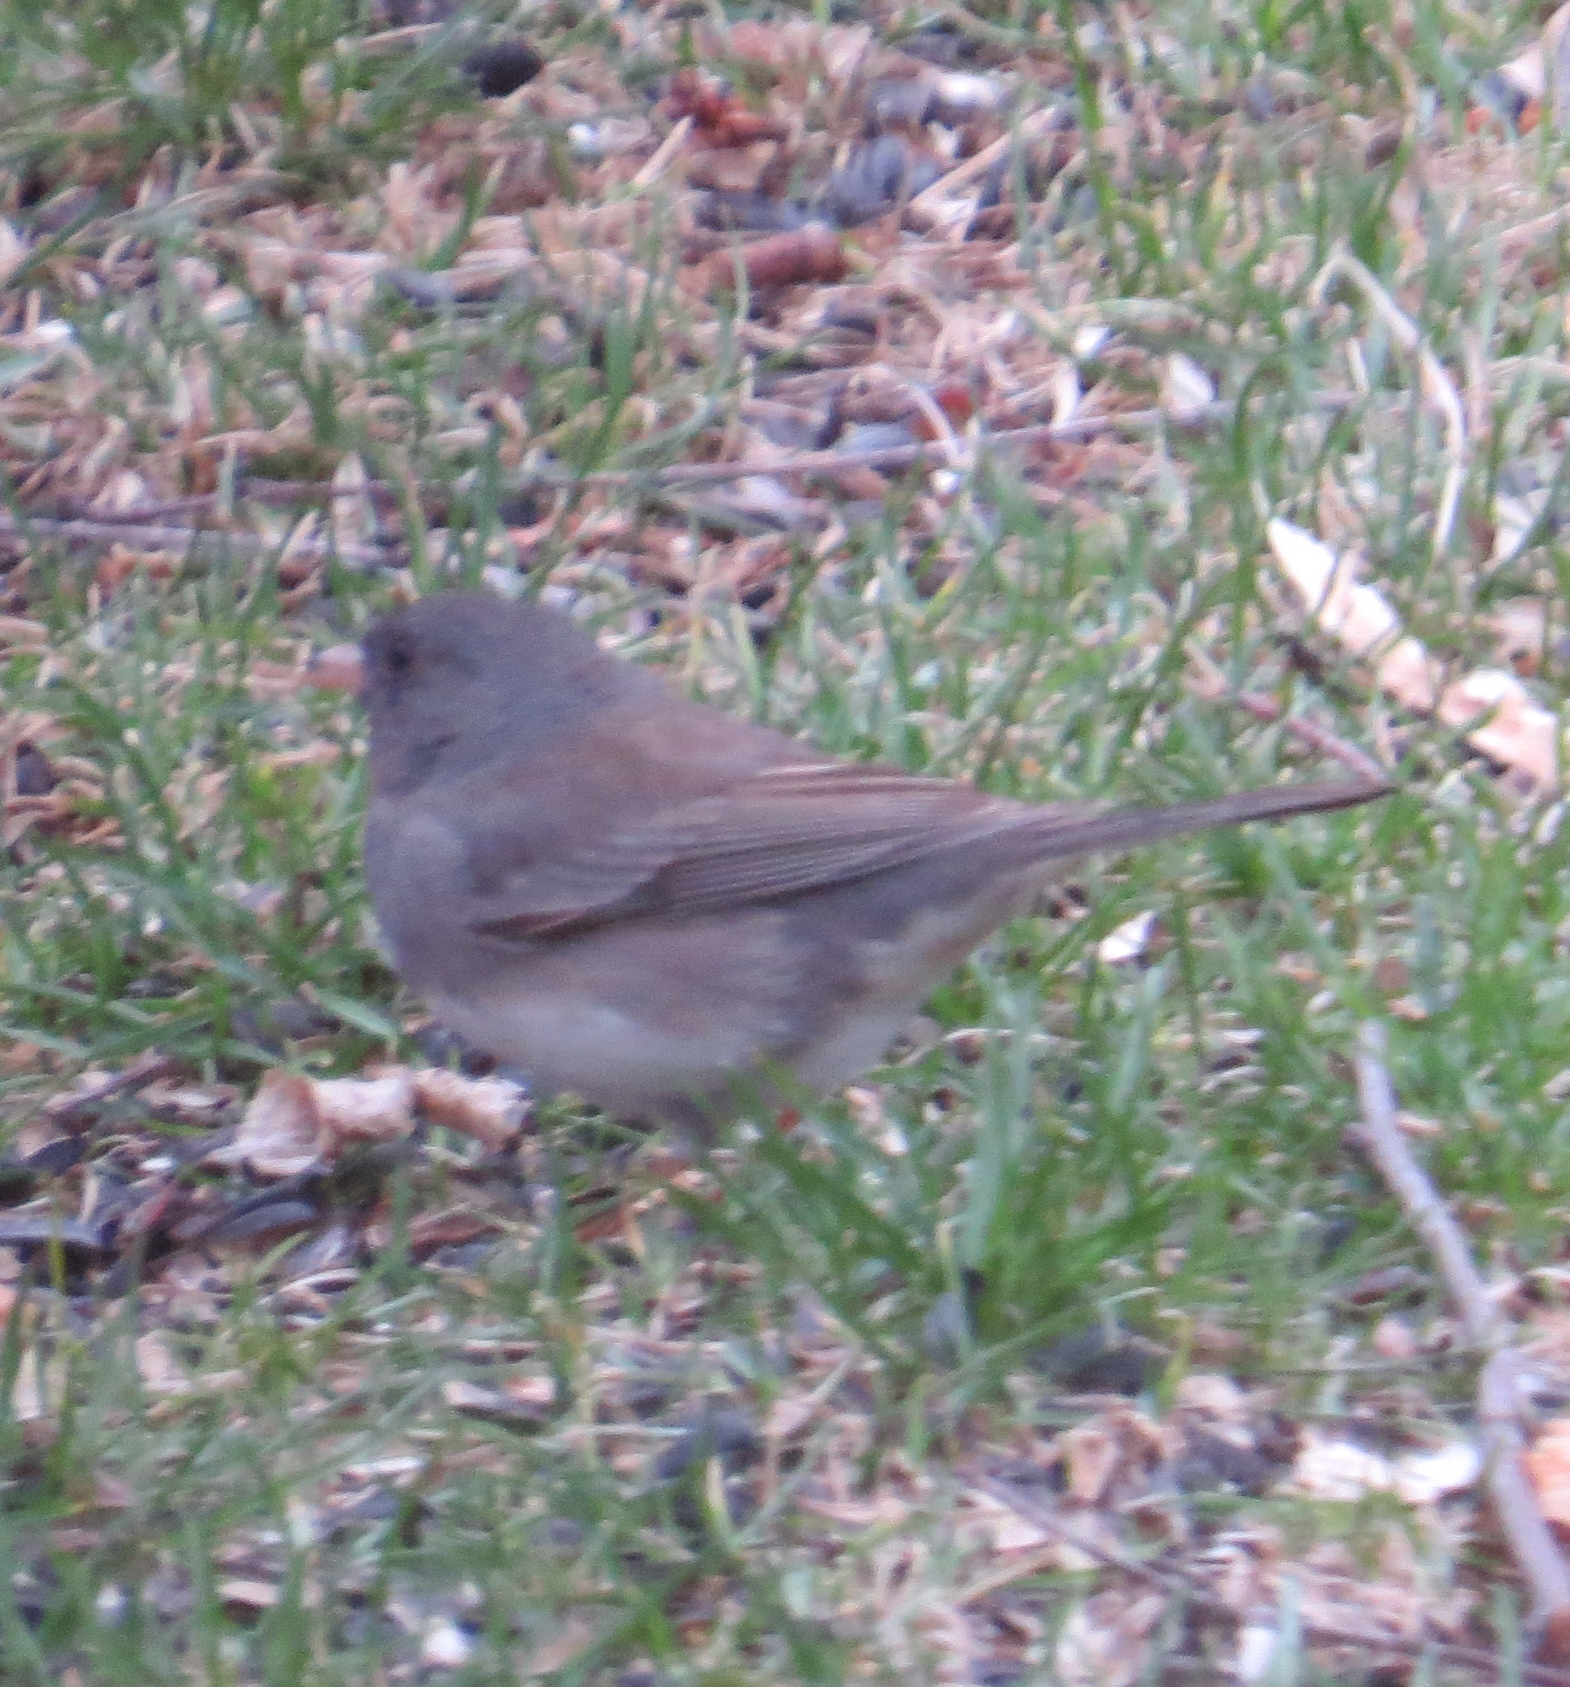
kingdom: Animalia
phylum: Chordata
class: Aves
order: Passeriformes
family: Passerellidae
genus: Junco
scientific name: Junco hyemalis
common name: Dark-eyed junco
